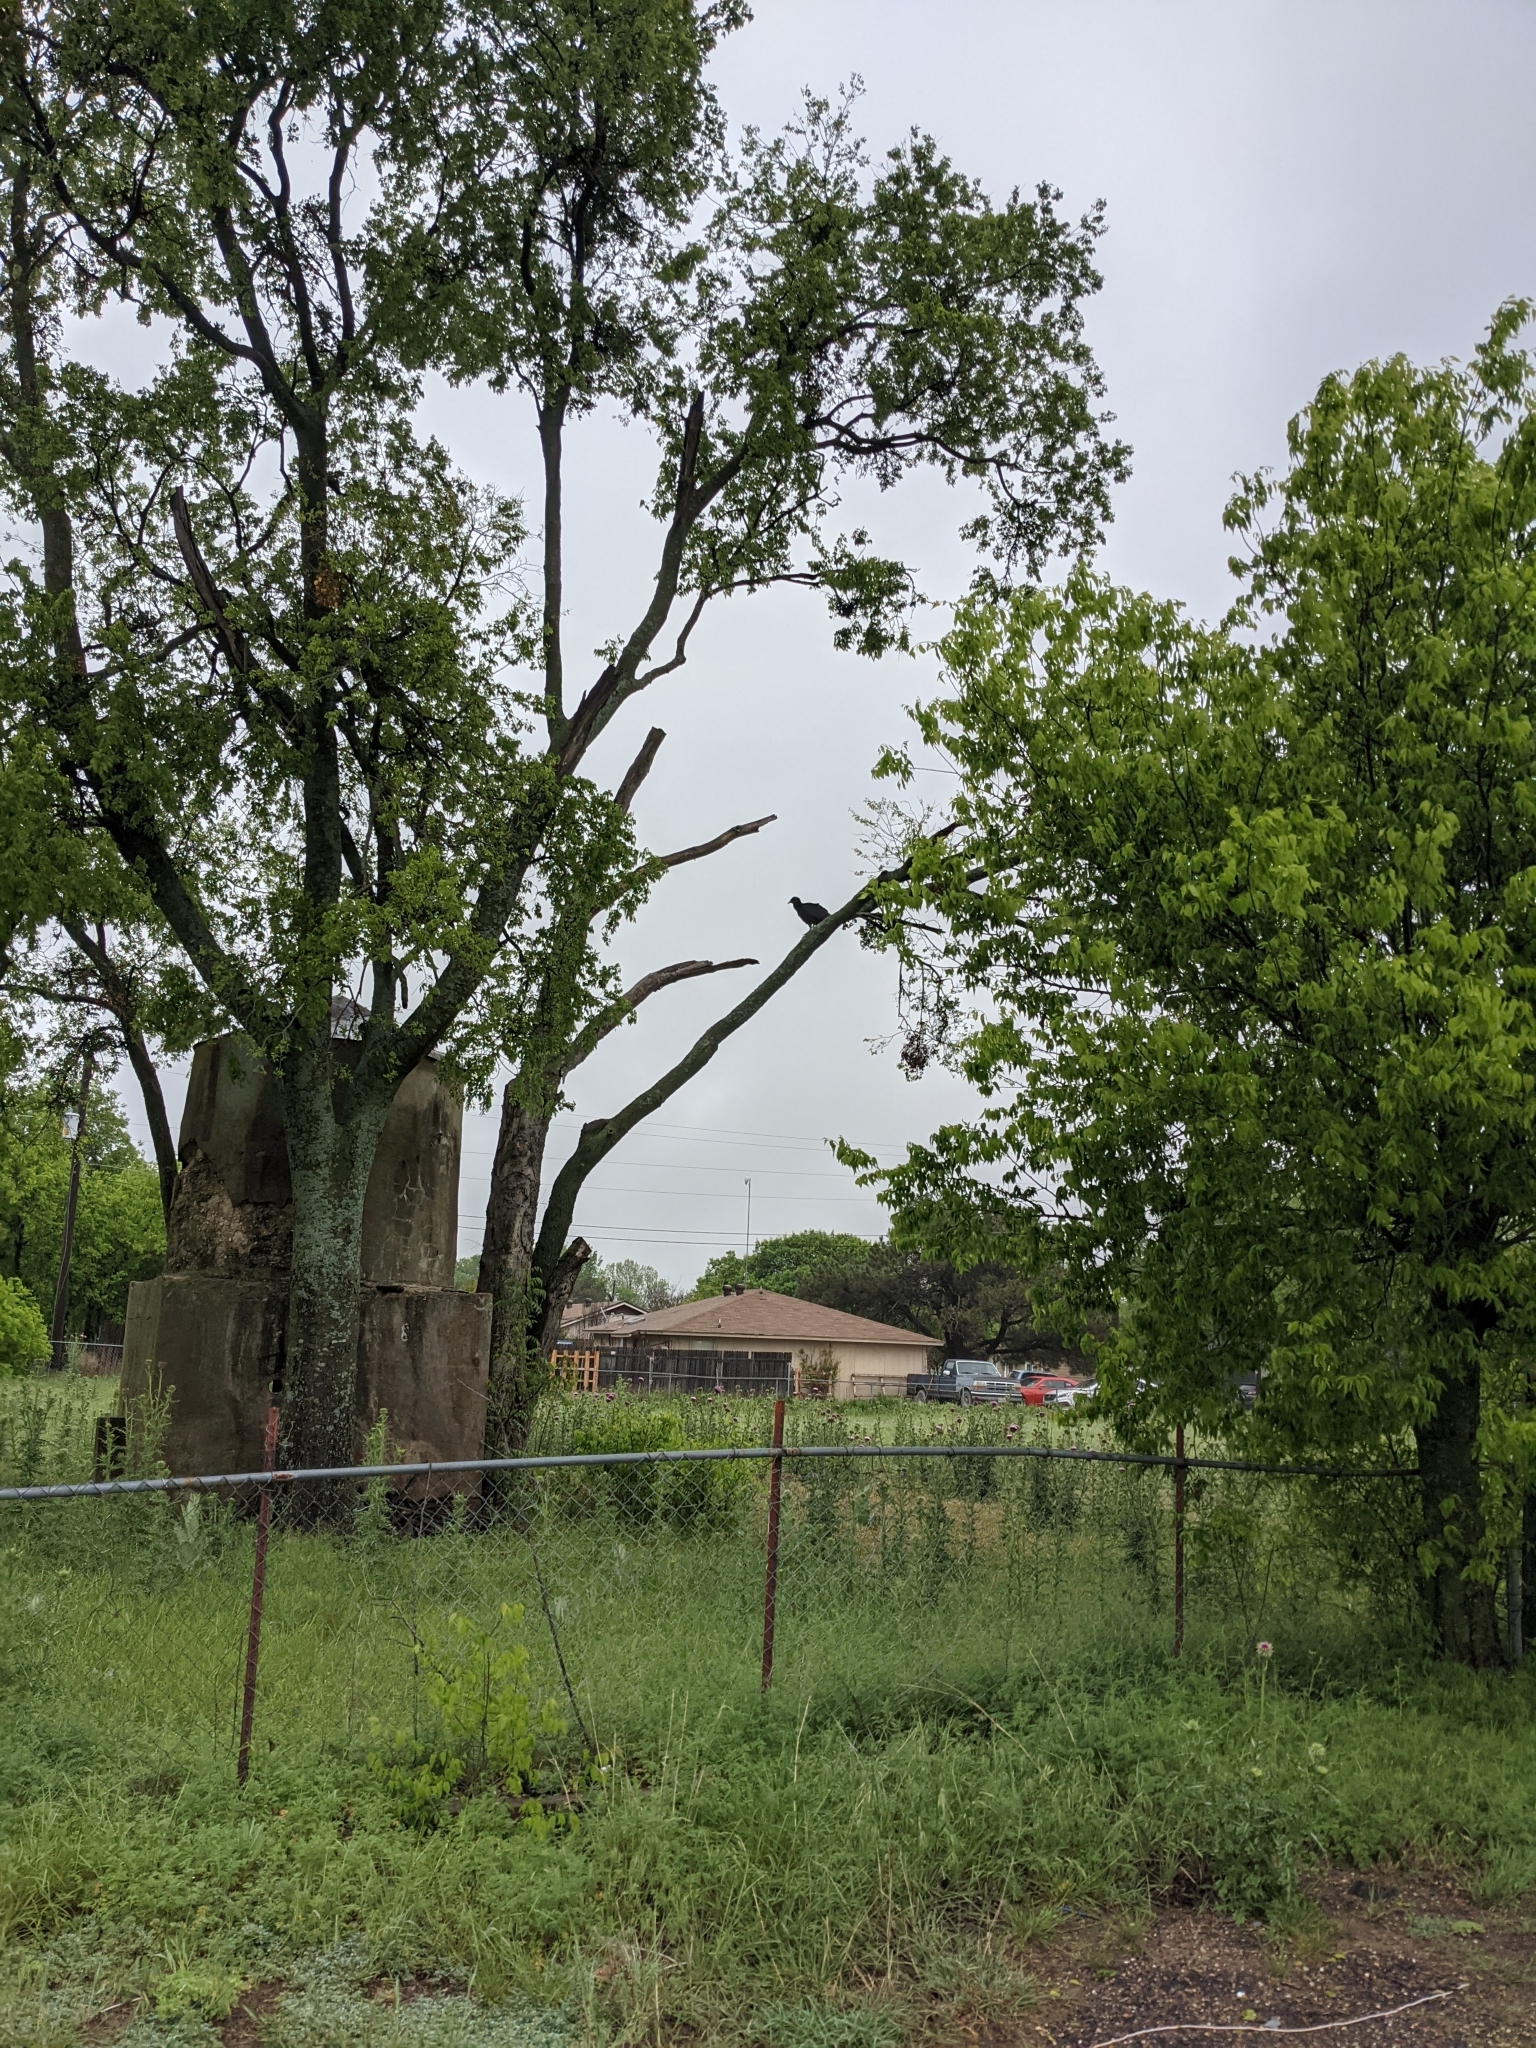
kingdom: Animalia
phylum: Chordata
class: Aves
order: Accipitriformes
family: Cathartidae
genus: Coragyps
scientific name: Coragyps atratus
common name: Black vulture
